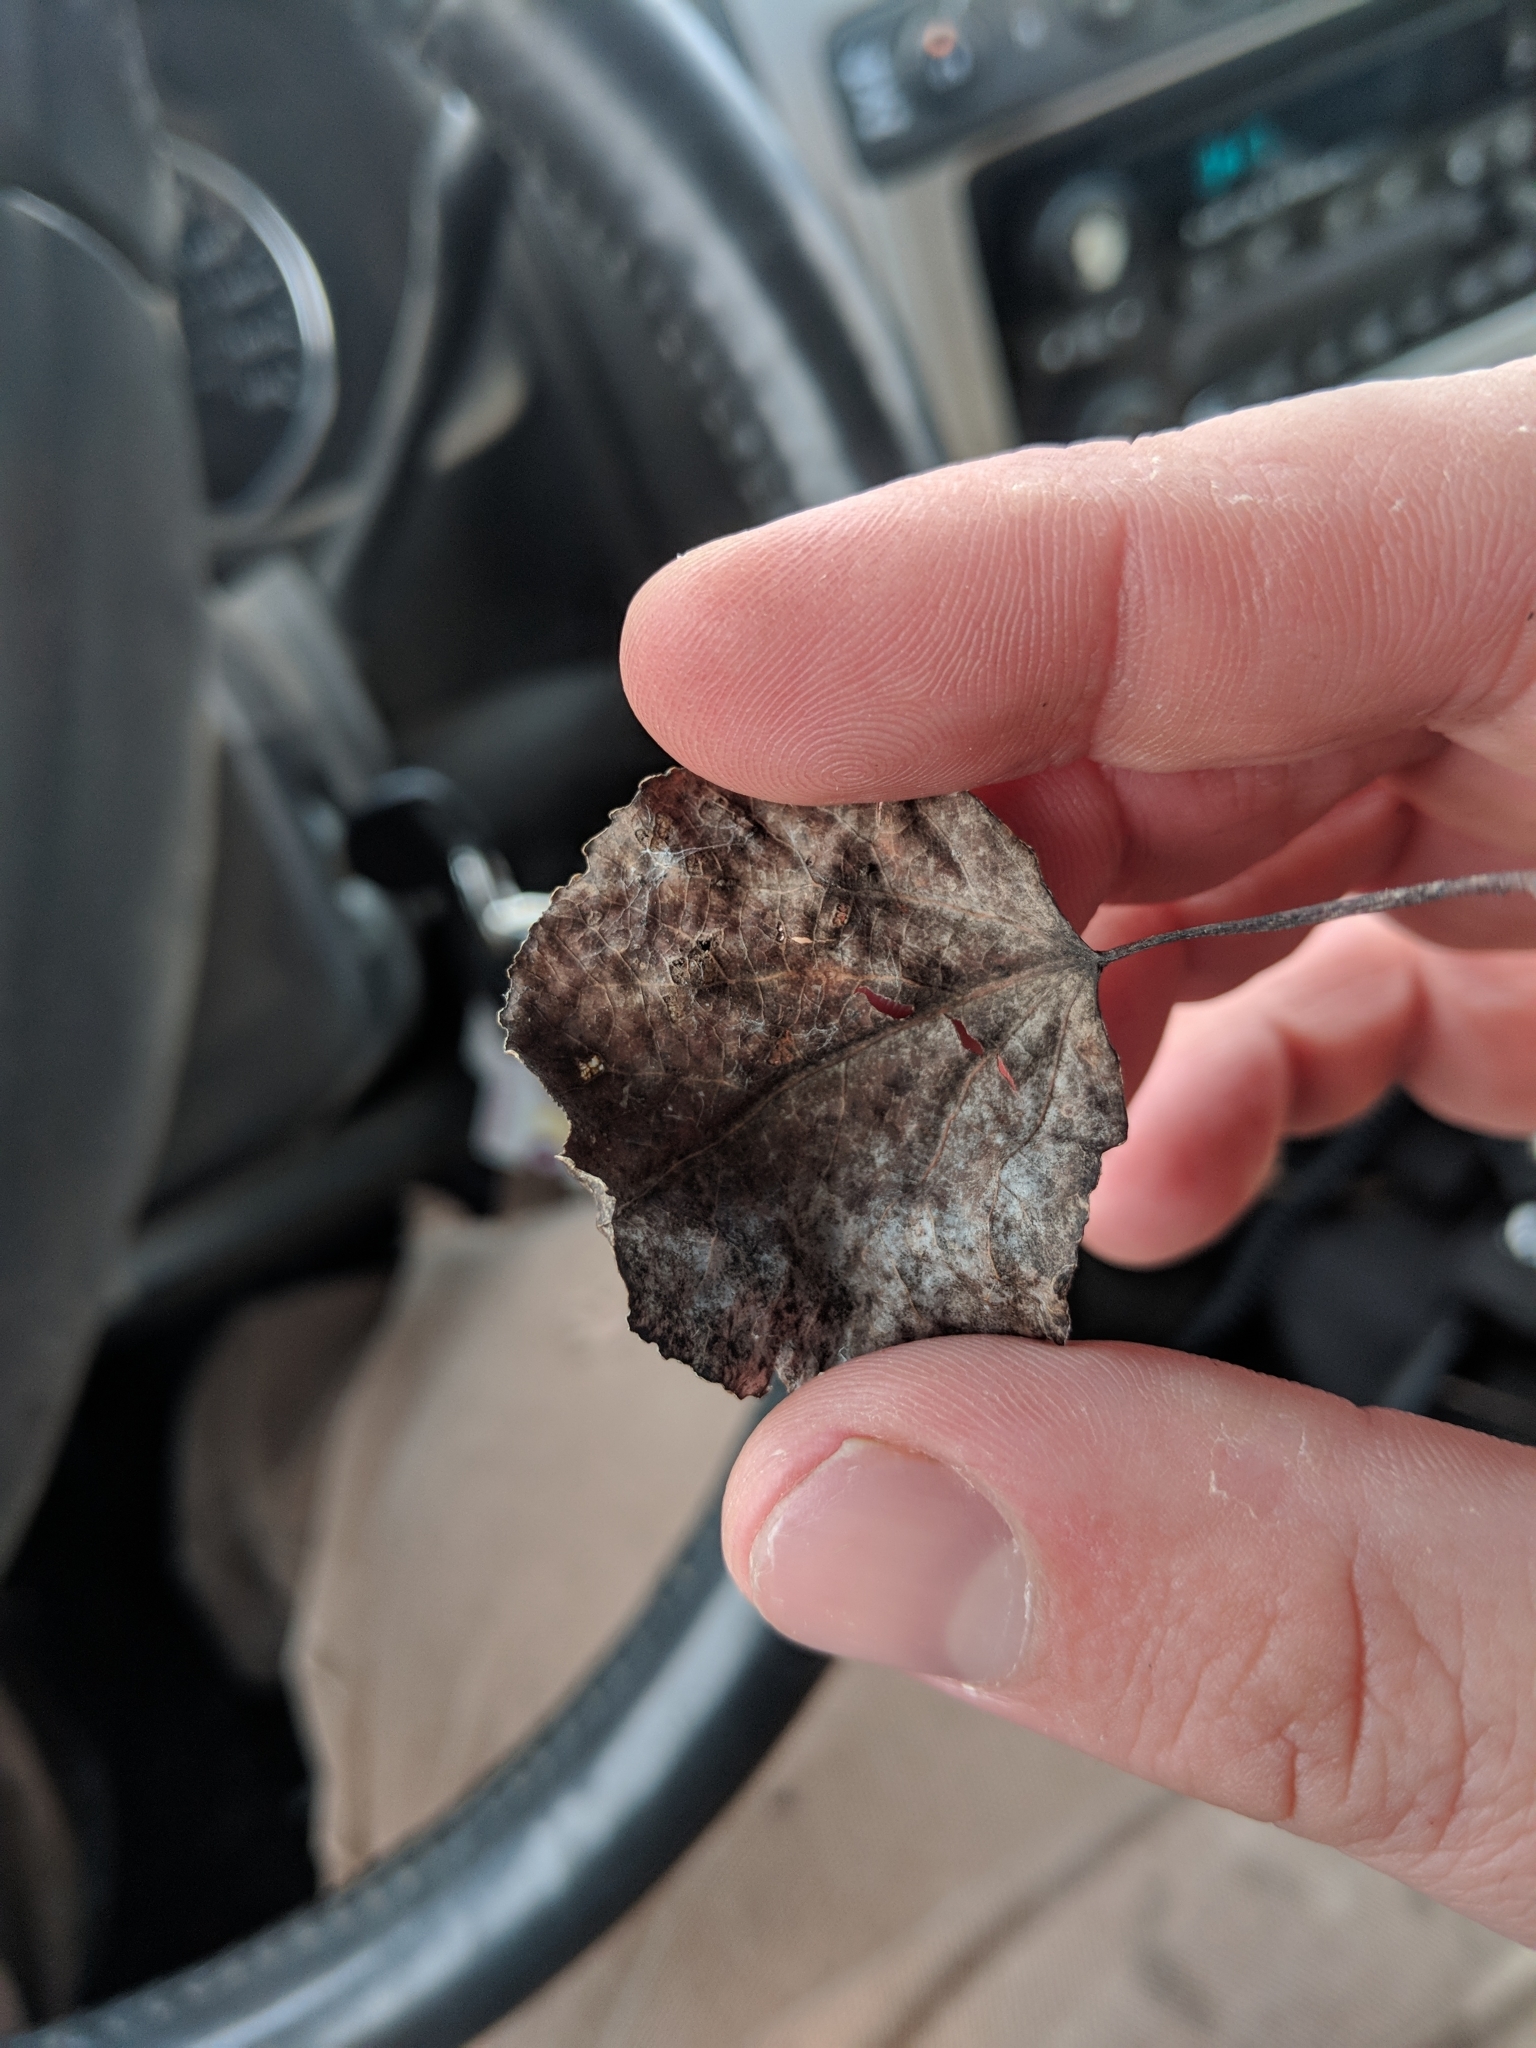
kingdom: Plantae
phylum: Tracheophyta
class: Magnoliopsida
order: Malpighiales
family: Salicaceae
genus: Populus
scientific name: Populus tremuloides
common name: Quaking aspen
